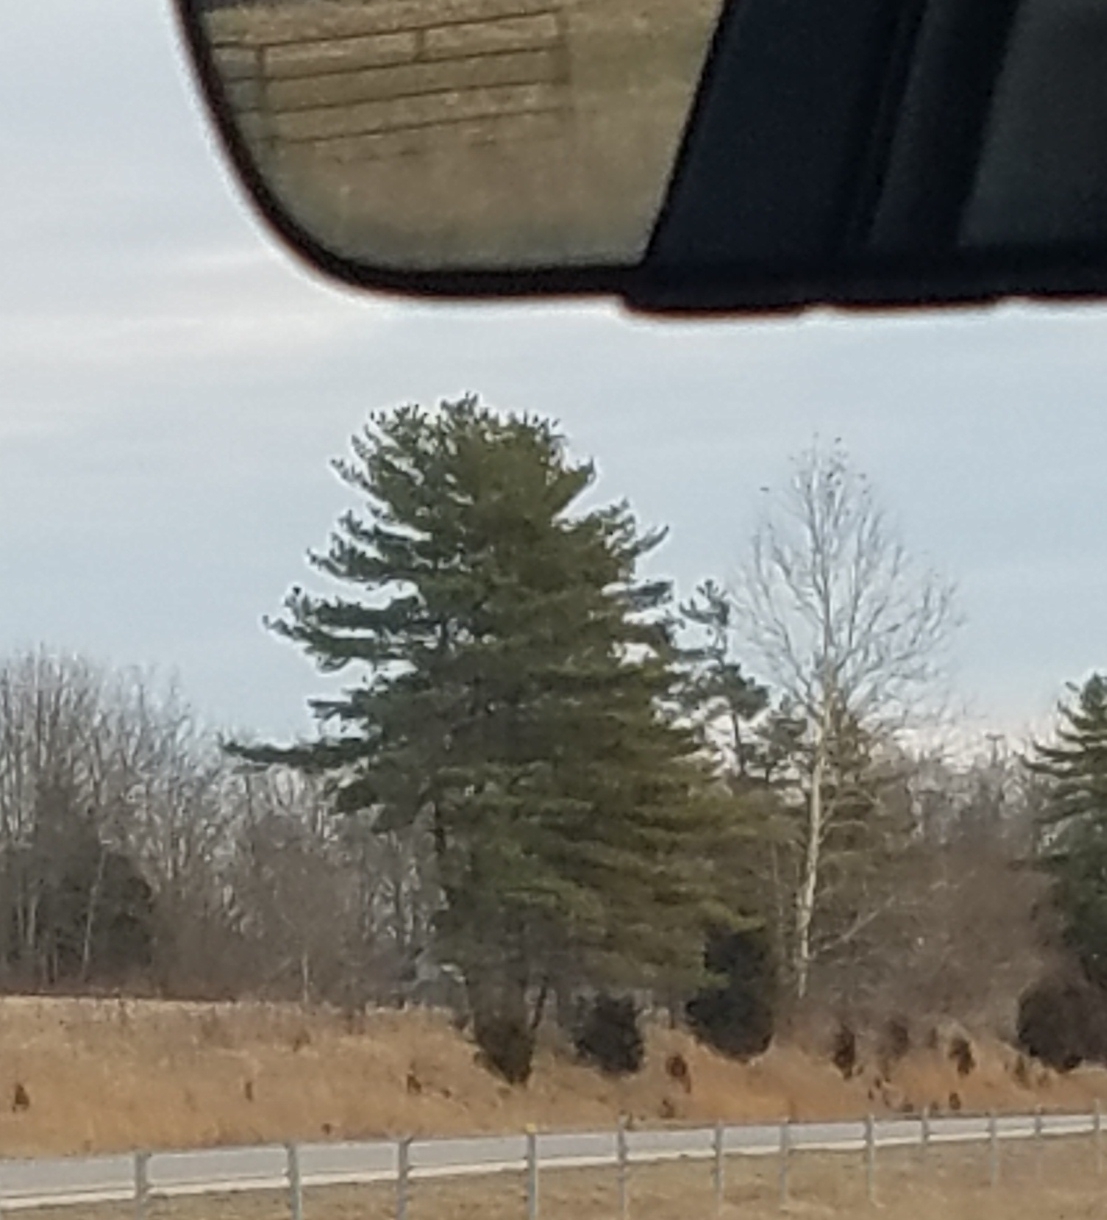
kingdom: Plantae
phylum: Tracheophyta
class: Pinopsida
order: Pinales
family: Pinaceae
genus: Pinus
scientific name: Pinus strobus
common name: Weymouth pine
